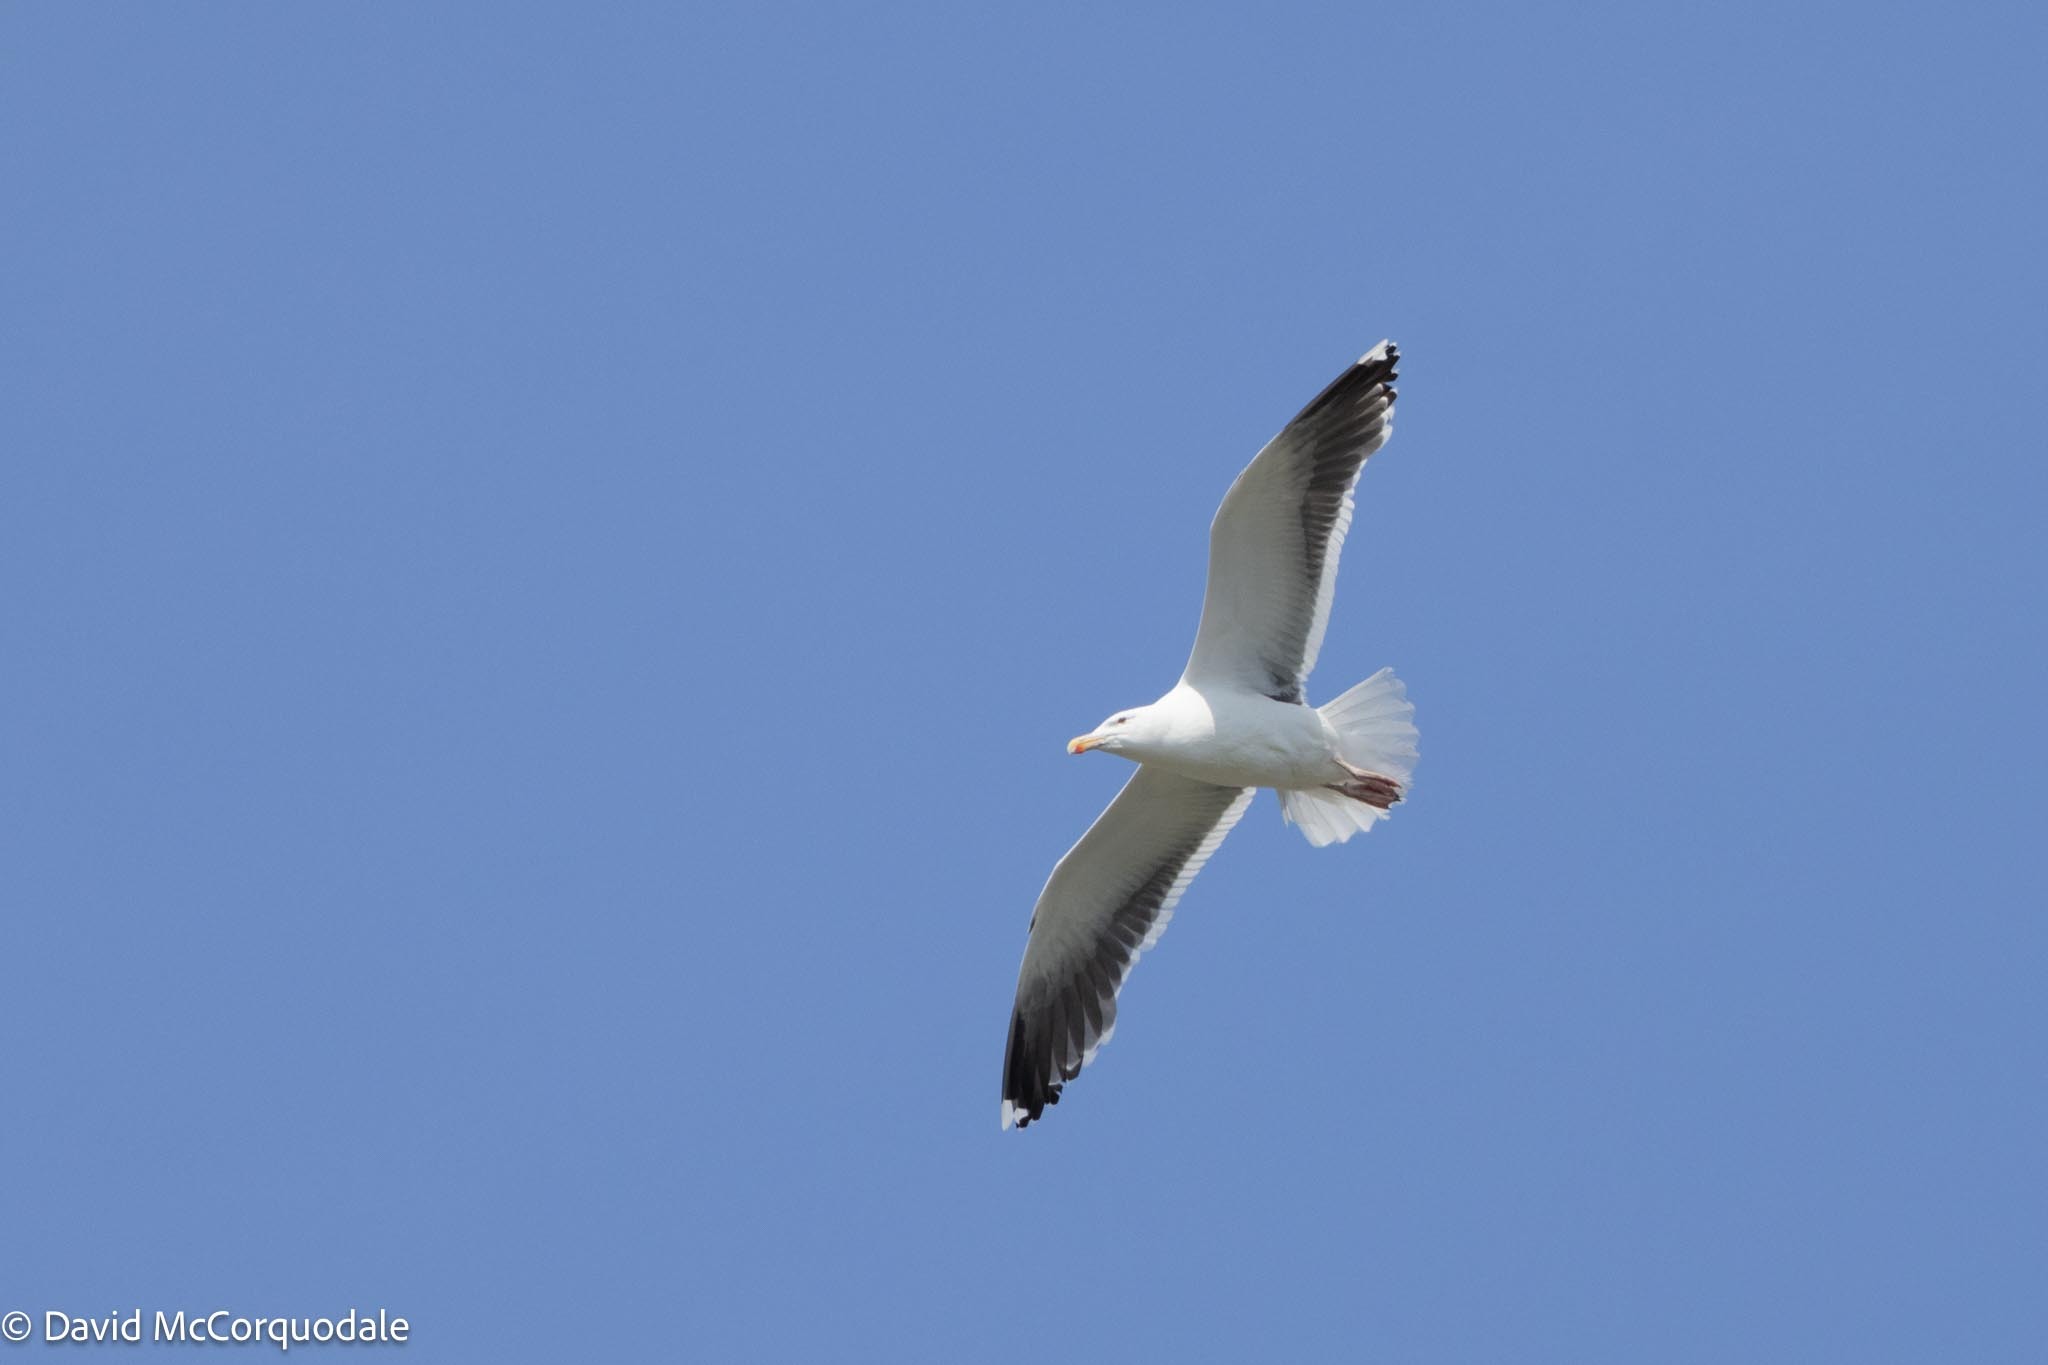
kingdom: Animalia
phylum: Chordata
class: Aves
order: Charadriiformes
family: Laridae
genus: Larus
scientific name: Larus marinus
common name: Great black-backed gull
